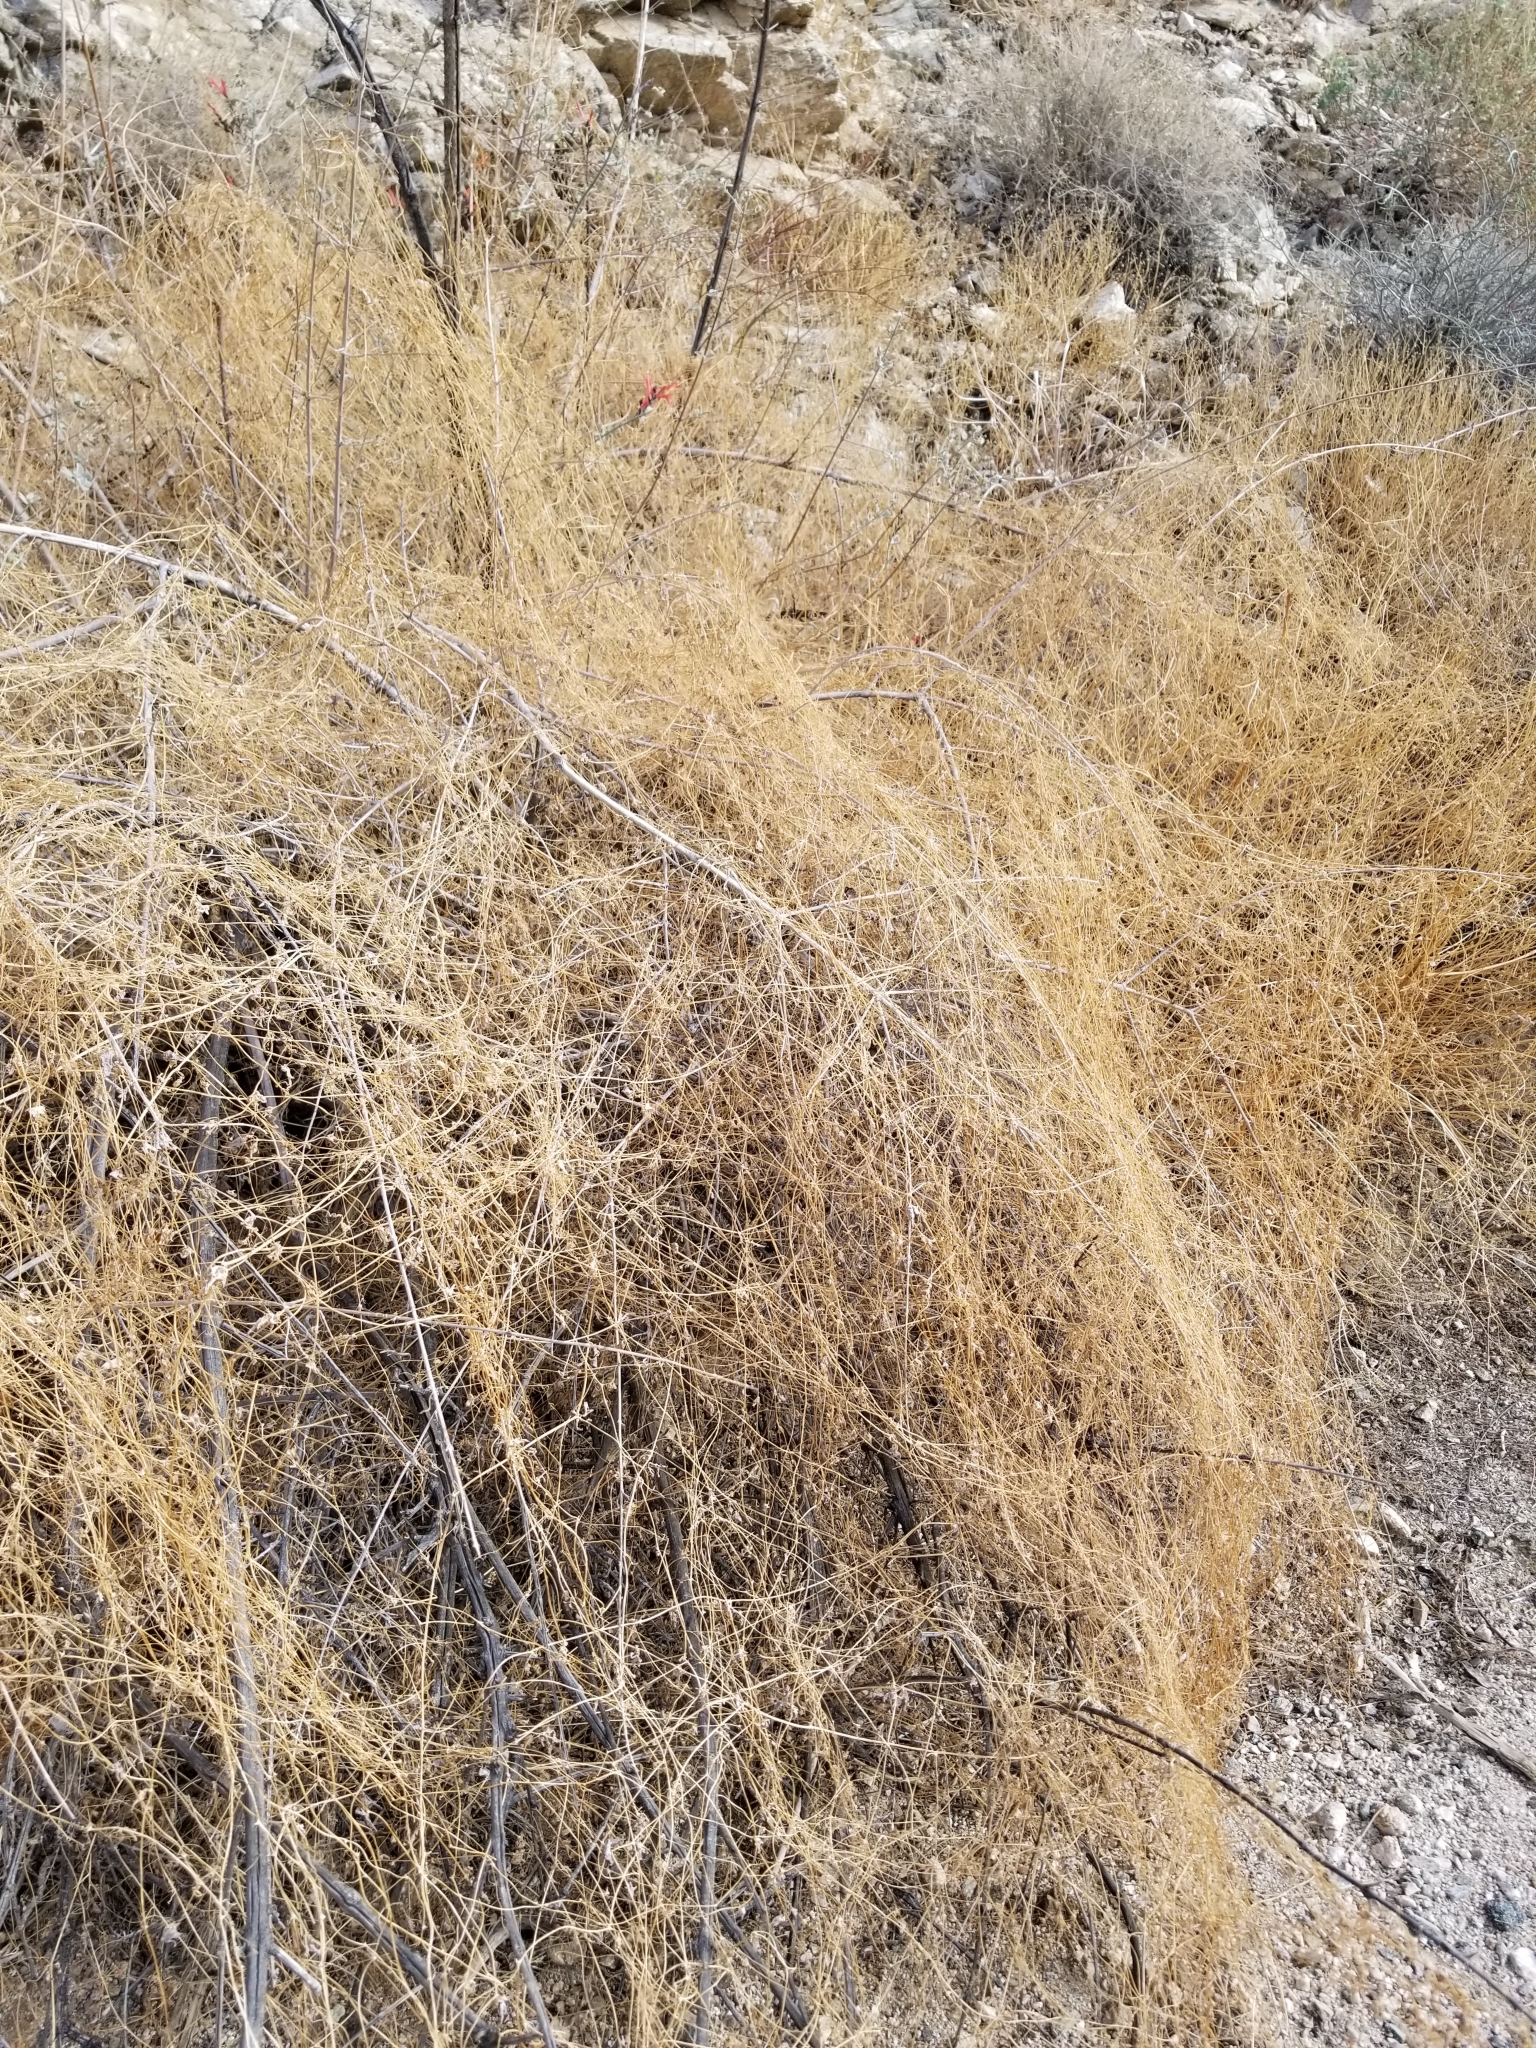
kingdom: Plantae
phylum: Tracheophyta
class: Magnoliopsida
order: Solanales
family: Convolvulaceae
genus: Cuscuta
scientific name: Cuscuta californica
